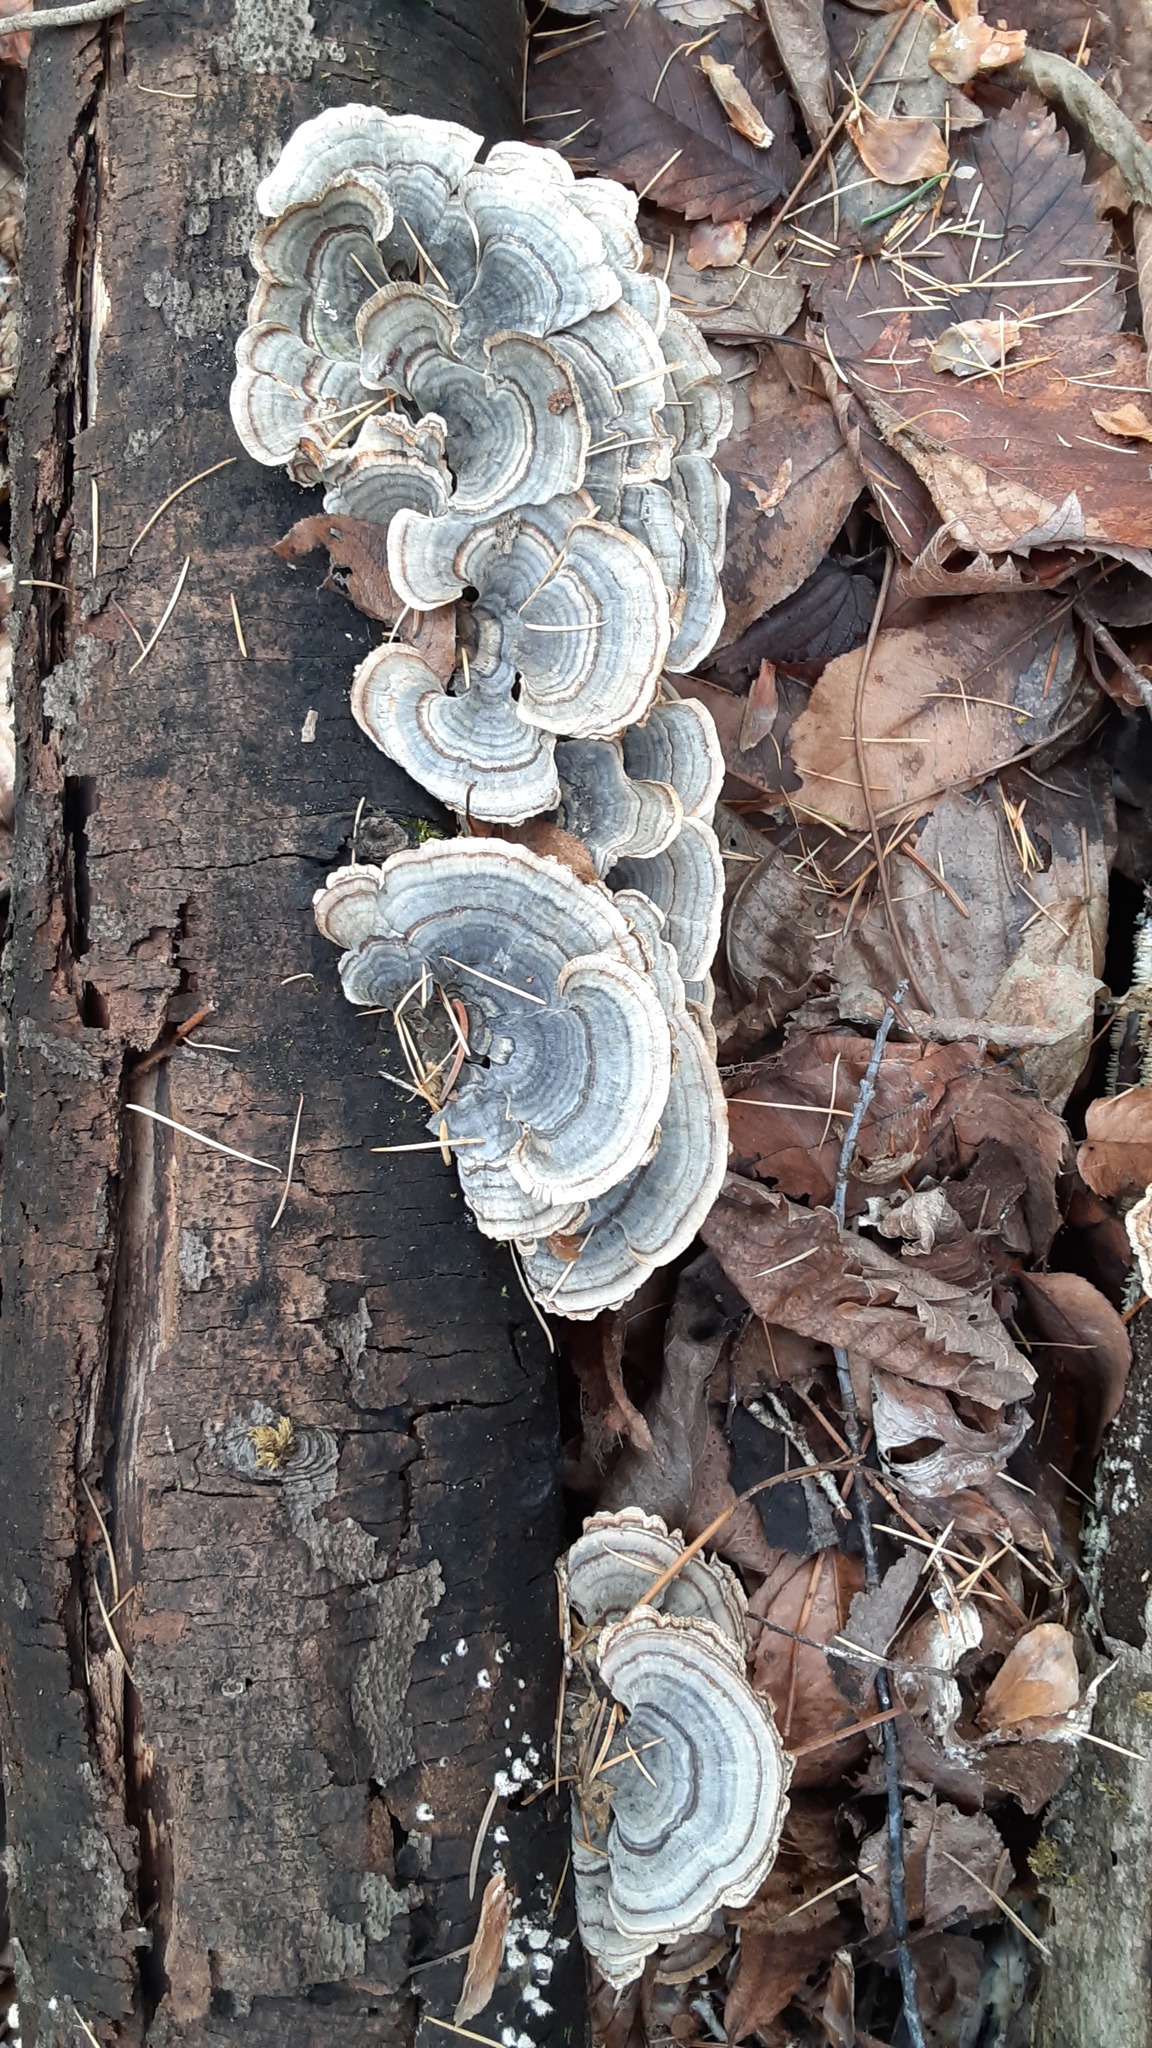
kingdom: Fungi
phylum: Basidiomycota
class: Agaricomycetes
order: Polyporales
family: Polyporaceae
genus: Trametes
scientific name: Trametes versicolor
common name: Turkeytail
